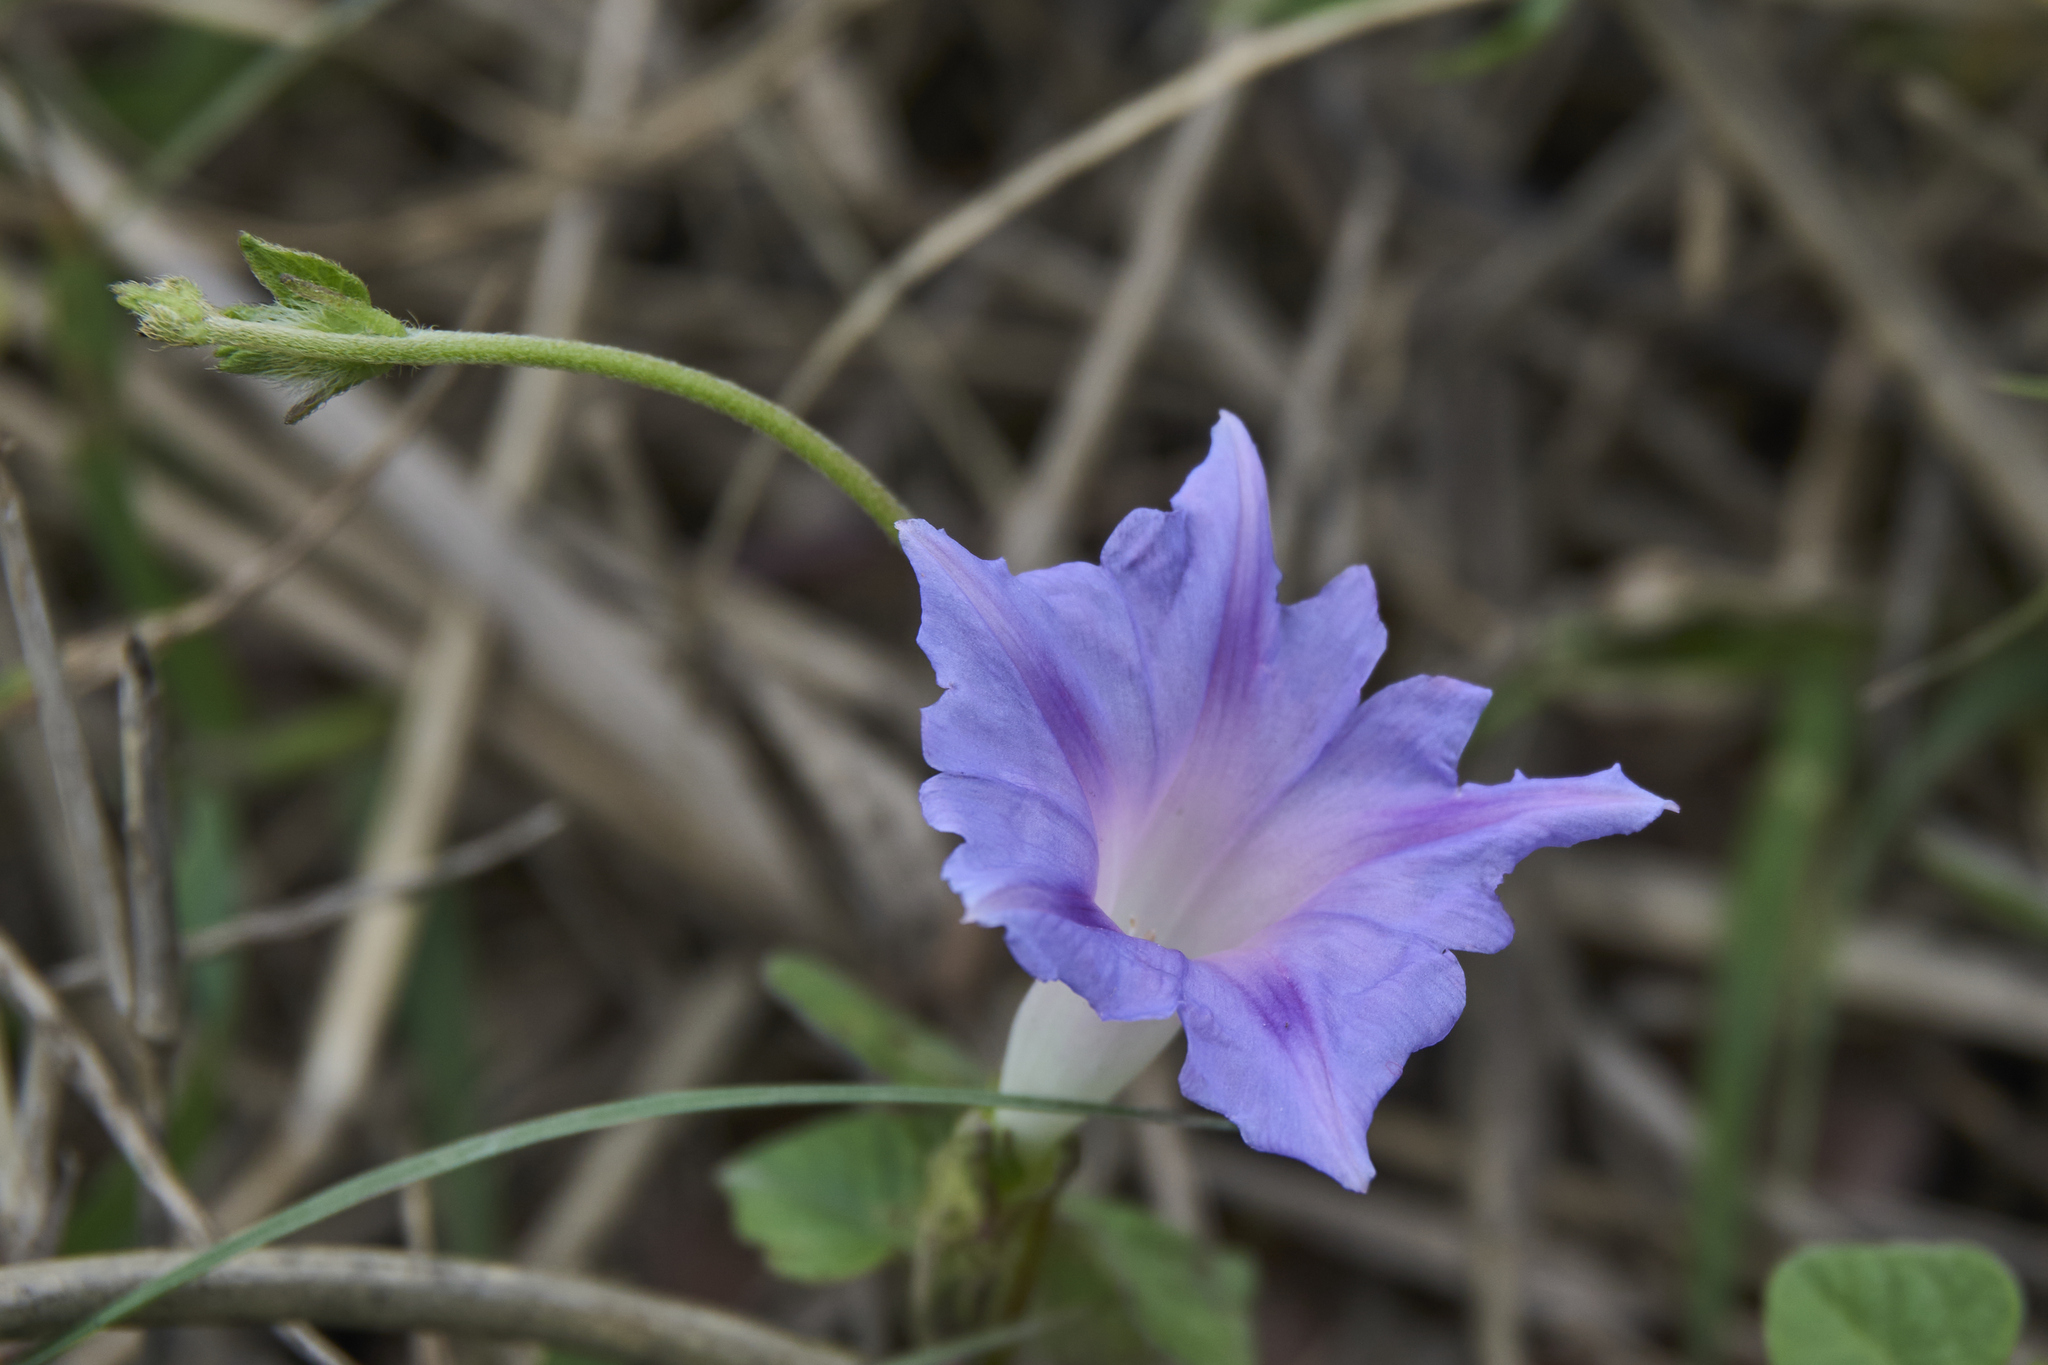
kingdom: Plantae
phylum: Tracheophyta
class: Magnoliopsida
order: Solanales
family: Convolvulaceae
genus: Ipomoea
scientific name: Ipomoea purpurea
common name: Common morning-glory
